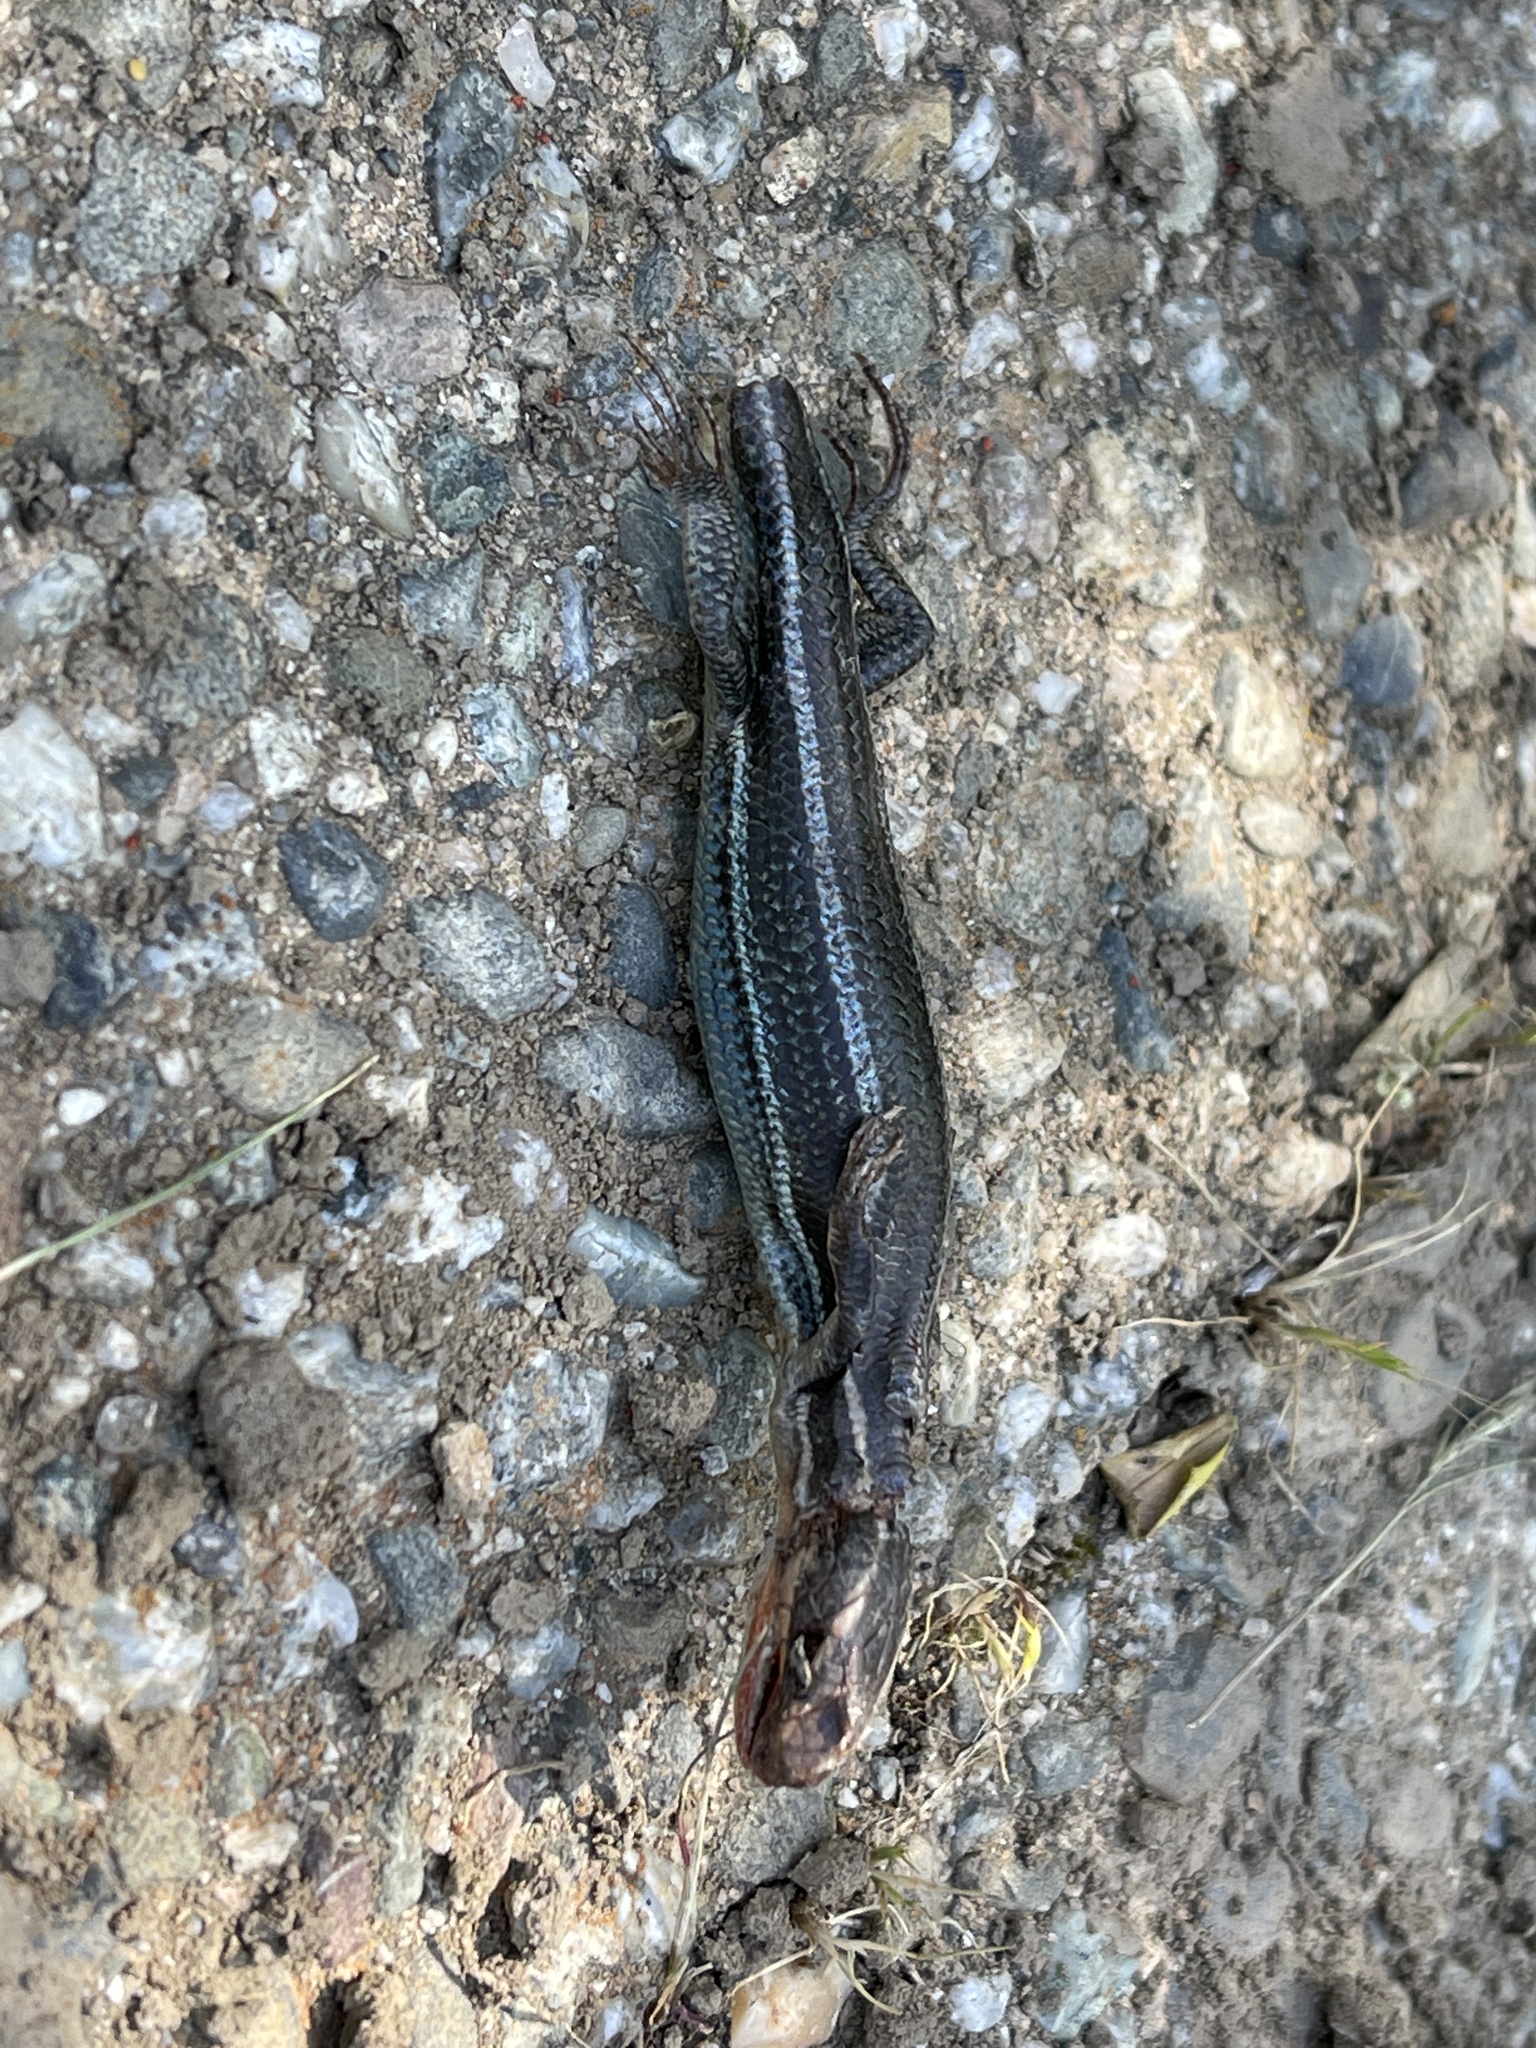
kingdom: Animalia
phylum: Chordata
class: Squamata
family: Scincidae
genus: Plestiodon
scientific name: Plestiodon skiltonianus
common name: Coronado island skink [interparietalis]
